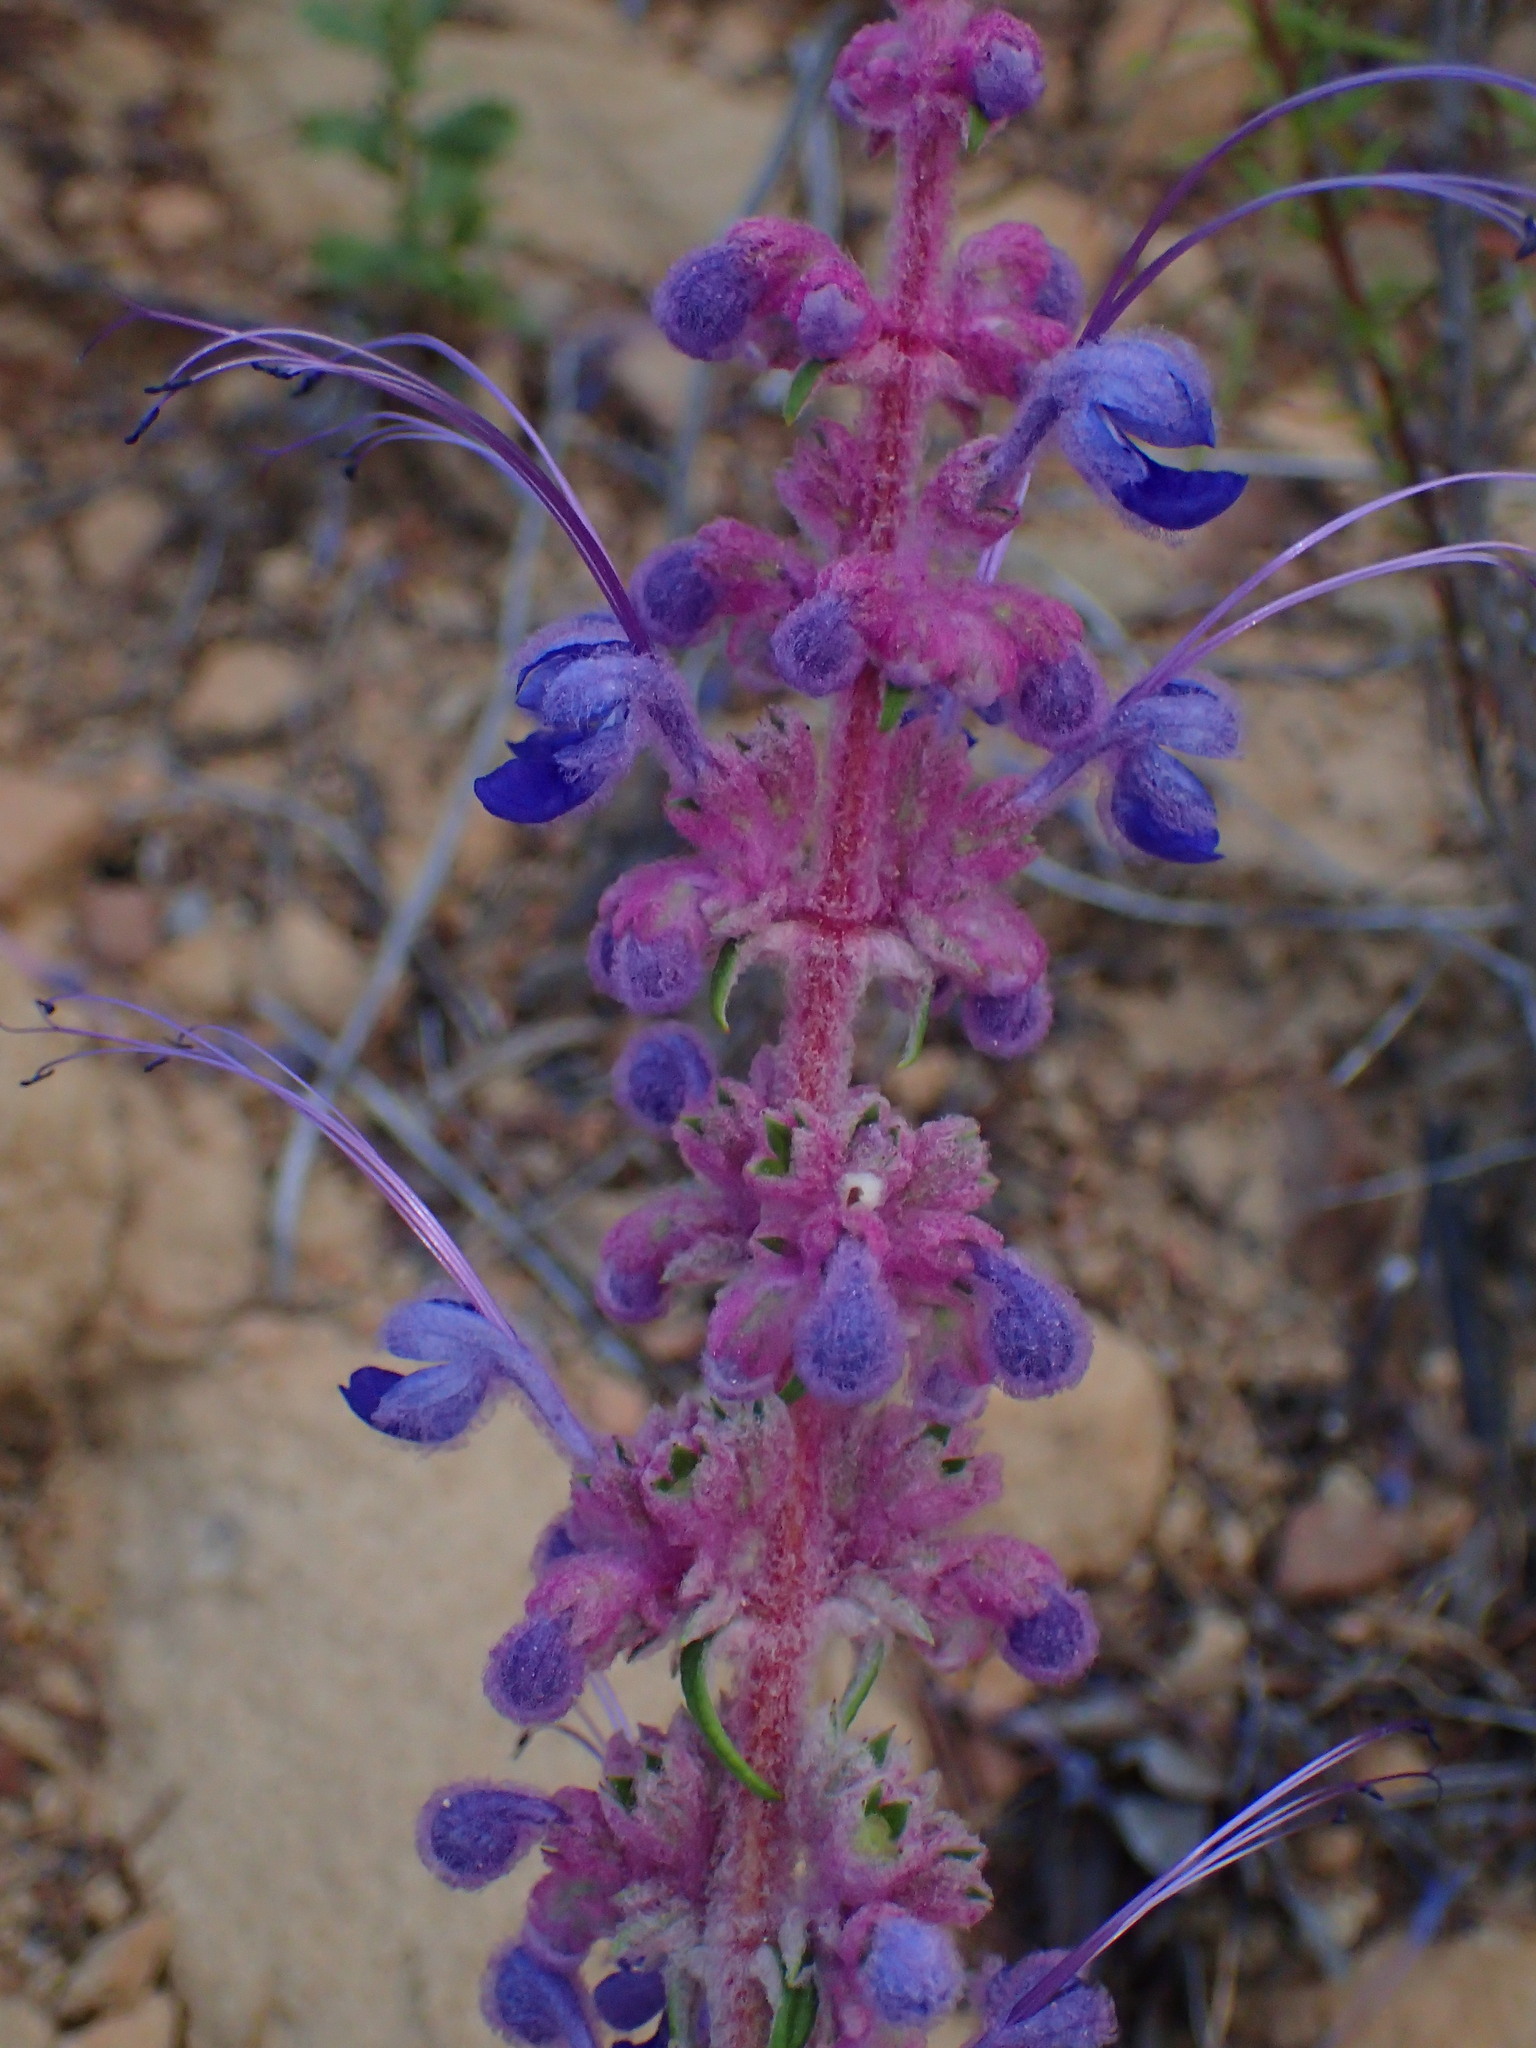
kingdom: Plantae
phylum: Tracheophyta
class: Magnoliopsida
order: Lamiales
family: Lamiaceae
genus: Trichostema
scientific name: Trichostema lanatum
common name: Woolly bluecurls
